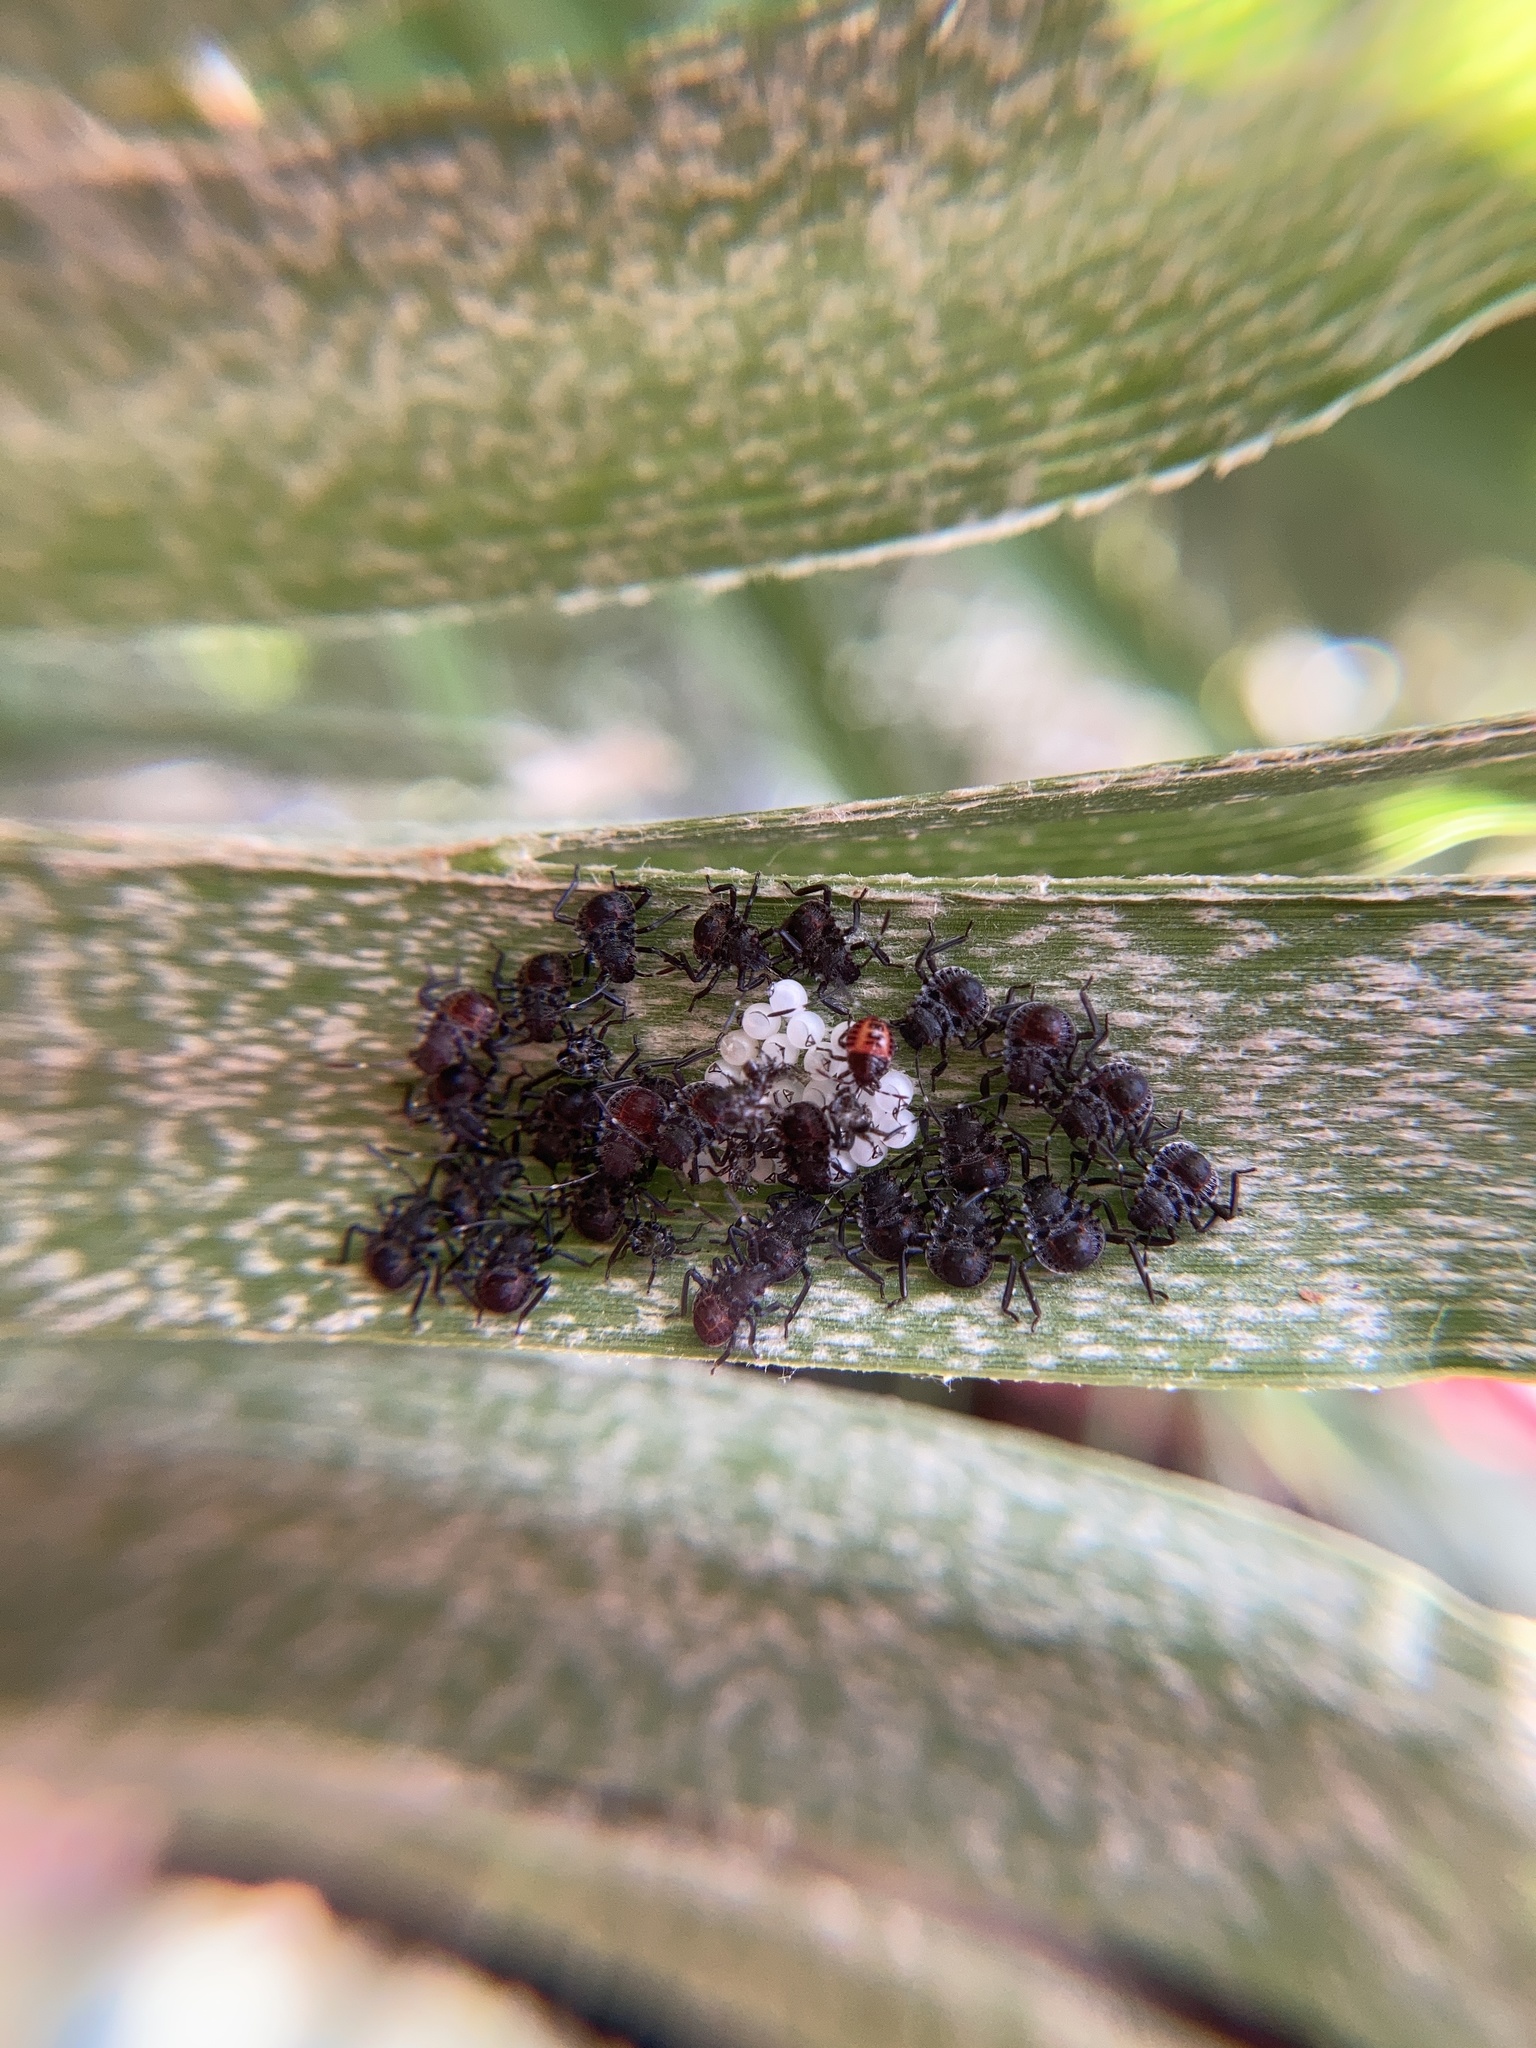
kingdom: Animalia
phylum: Arthropoda
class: Insecta
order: Hemiptera
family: Pentatomidae
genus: Halyomorpha
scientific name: Halyomorpha halys
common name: Brown marmorated stink bug
